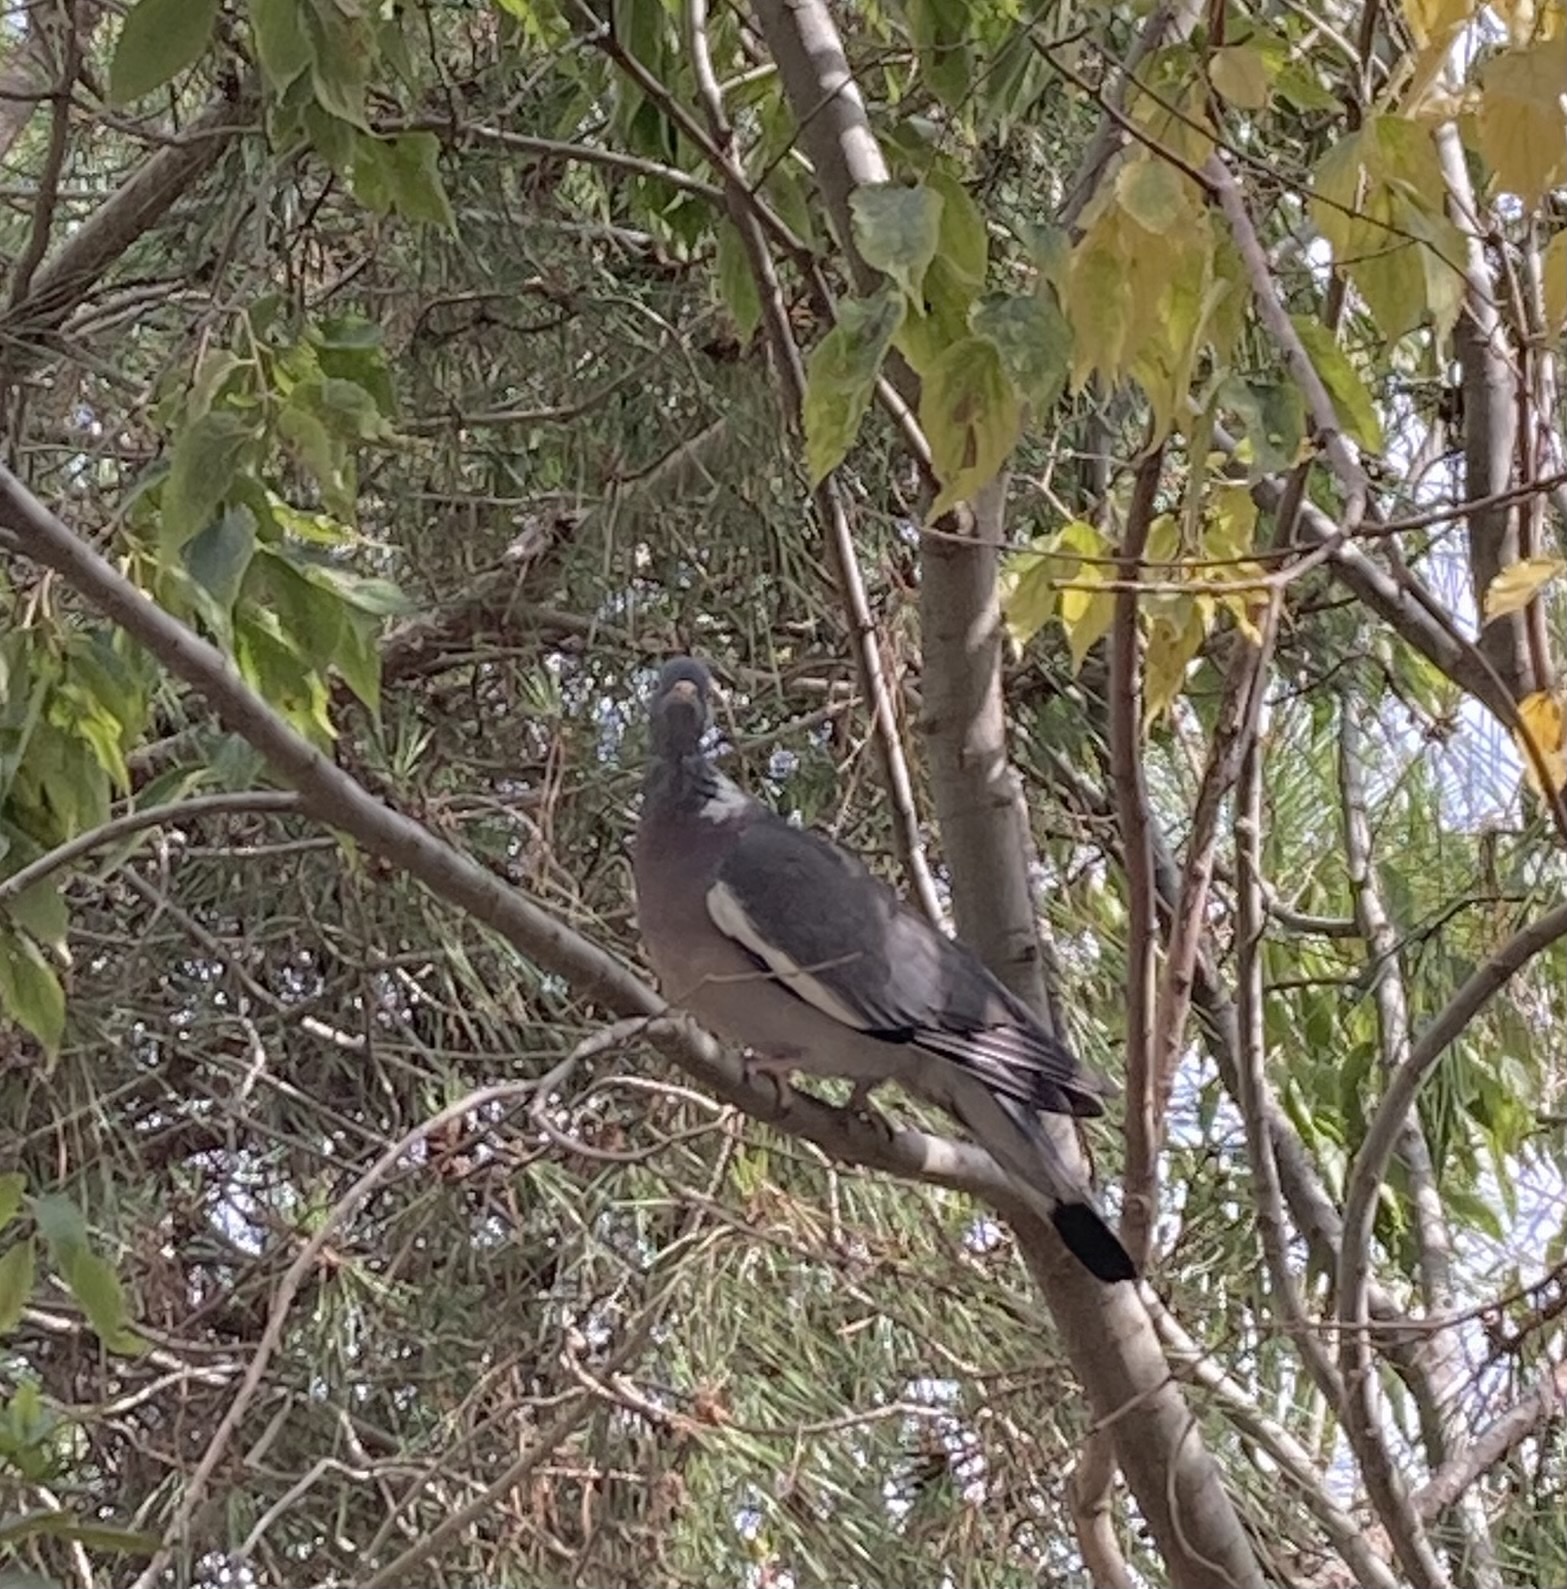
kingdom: Animalia
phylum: Chordata
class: Aves
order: Columbiformes
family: Columbidae
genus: Columba
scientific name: Columba palumbus
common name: Common wood pigeon
